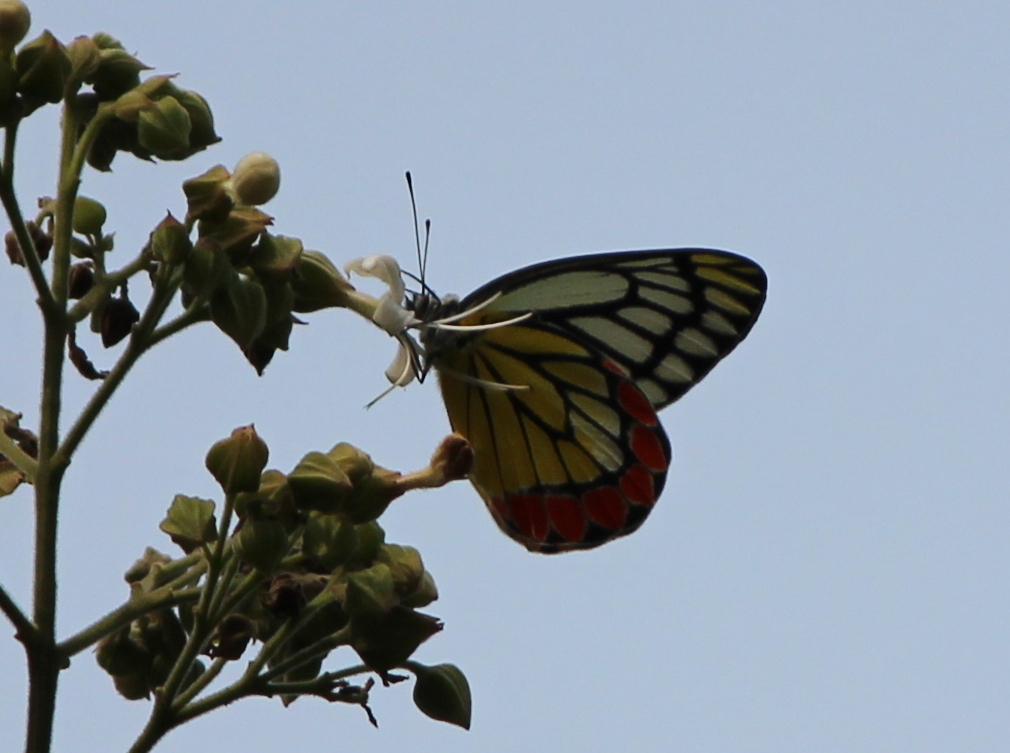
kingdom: Animalia
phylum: Arthropoda
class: Insecta
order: Lepidoptera
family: Pieridae
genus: Delias
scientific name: Delias eucharis
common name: Common jezebel
